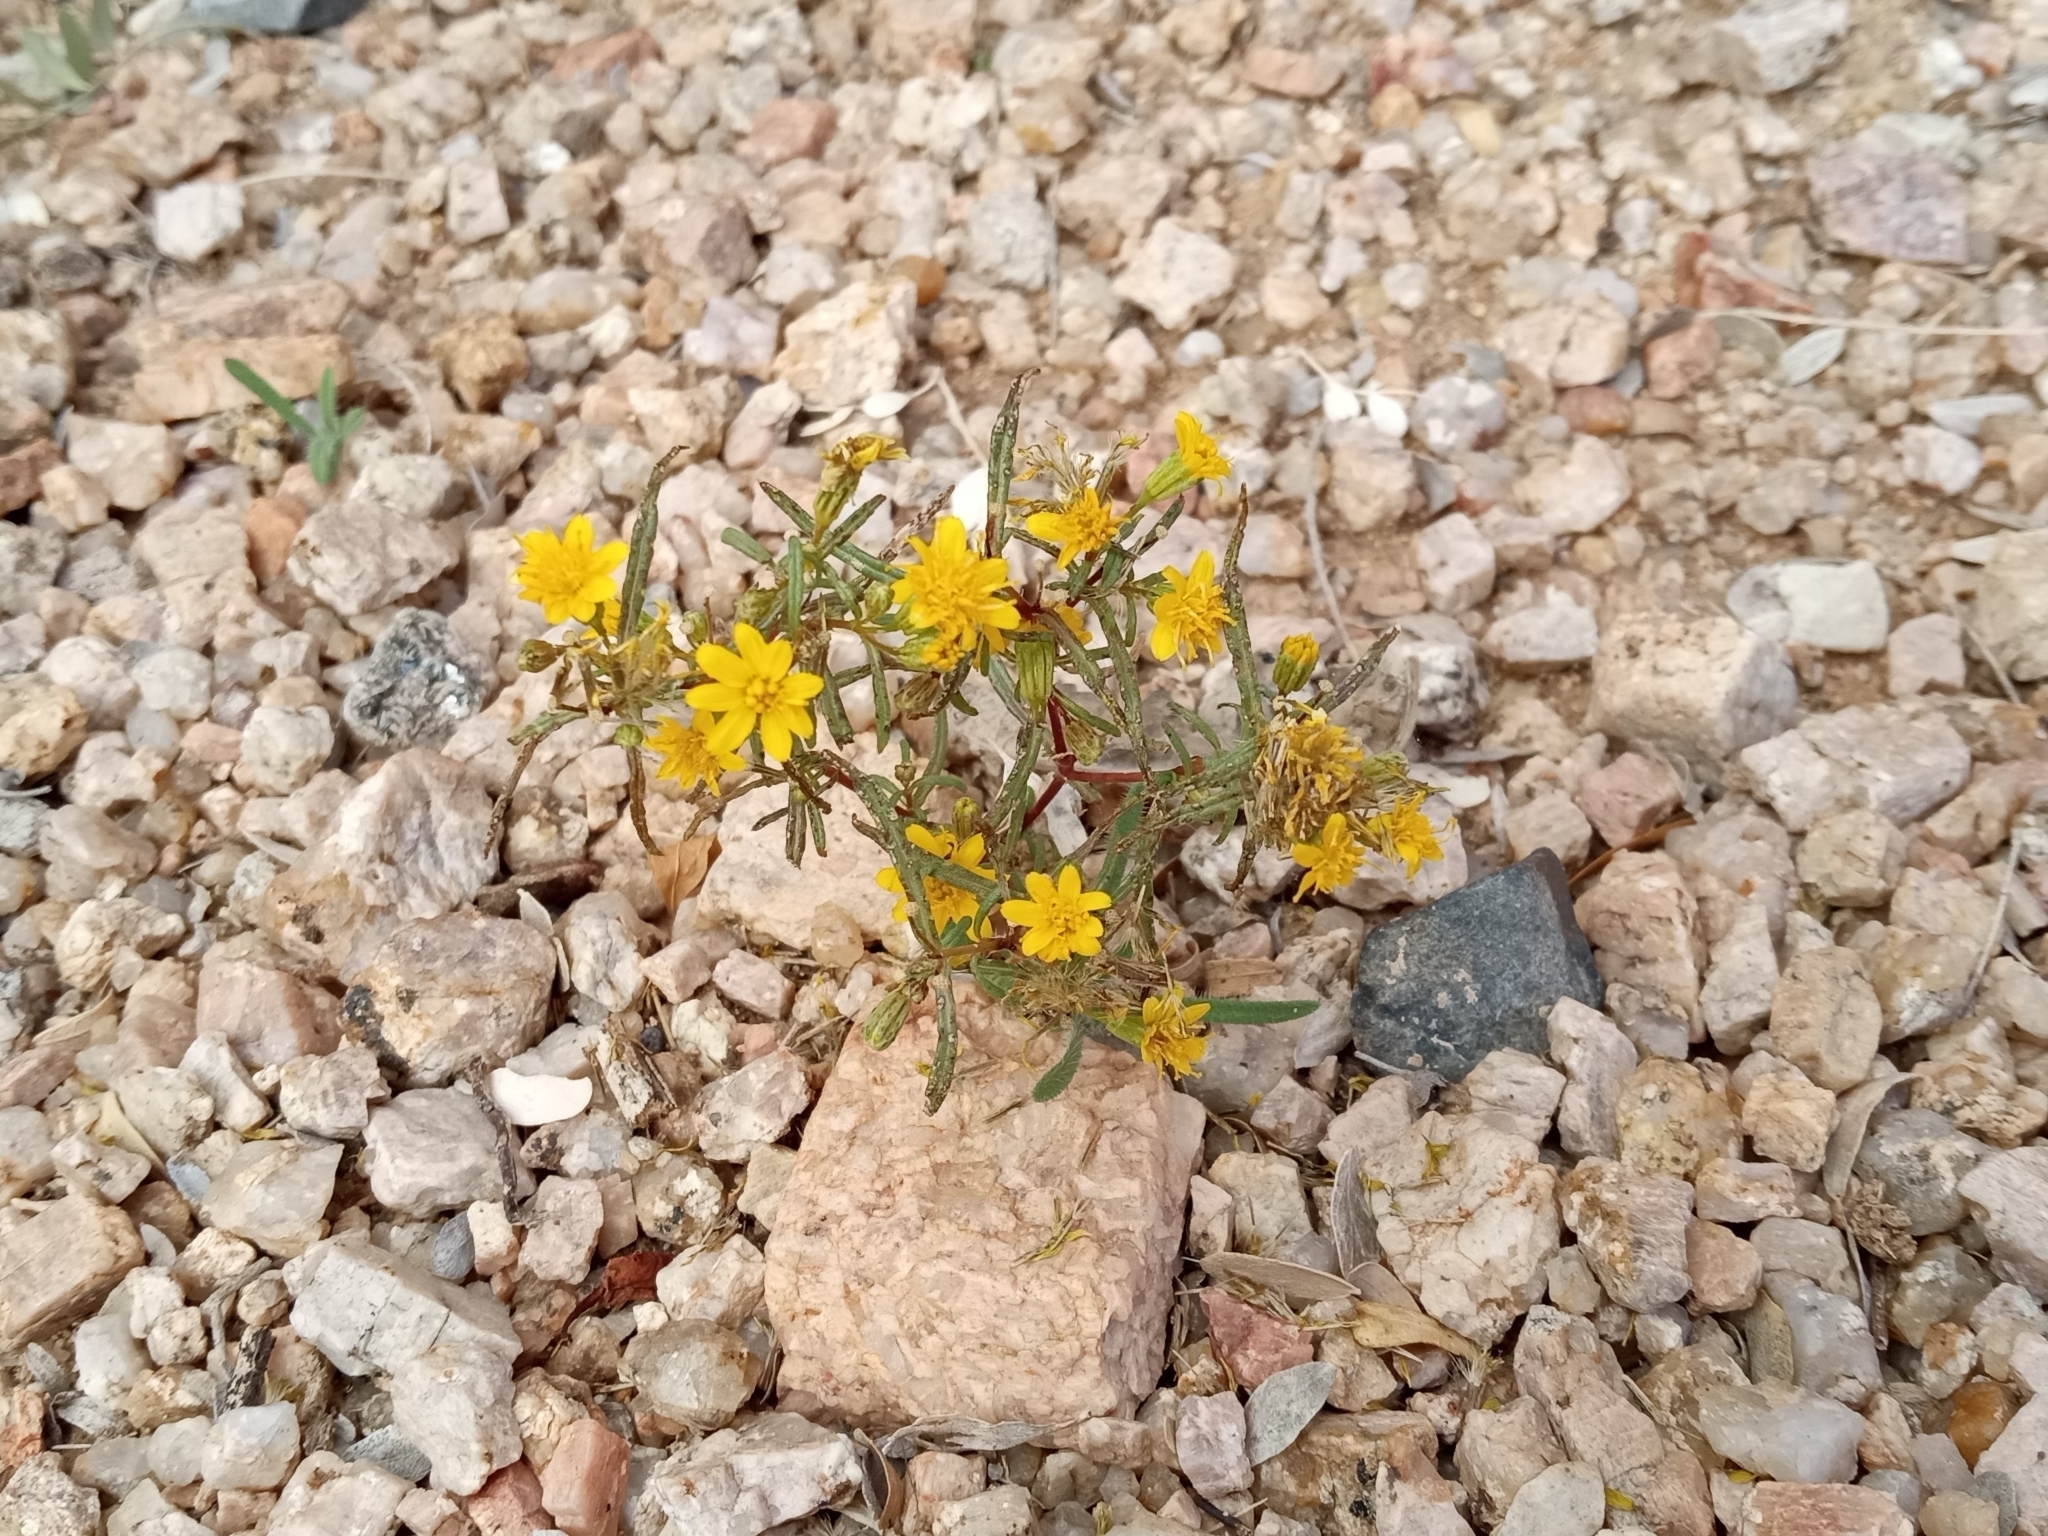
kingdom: Plantae
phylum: Tracheophyta
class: Magnoliopsida
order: Asterales
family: Asteraceae
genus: Pectis
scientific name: Pectis papposa
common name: Many-bristle chinchweed
